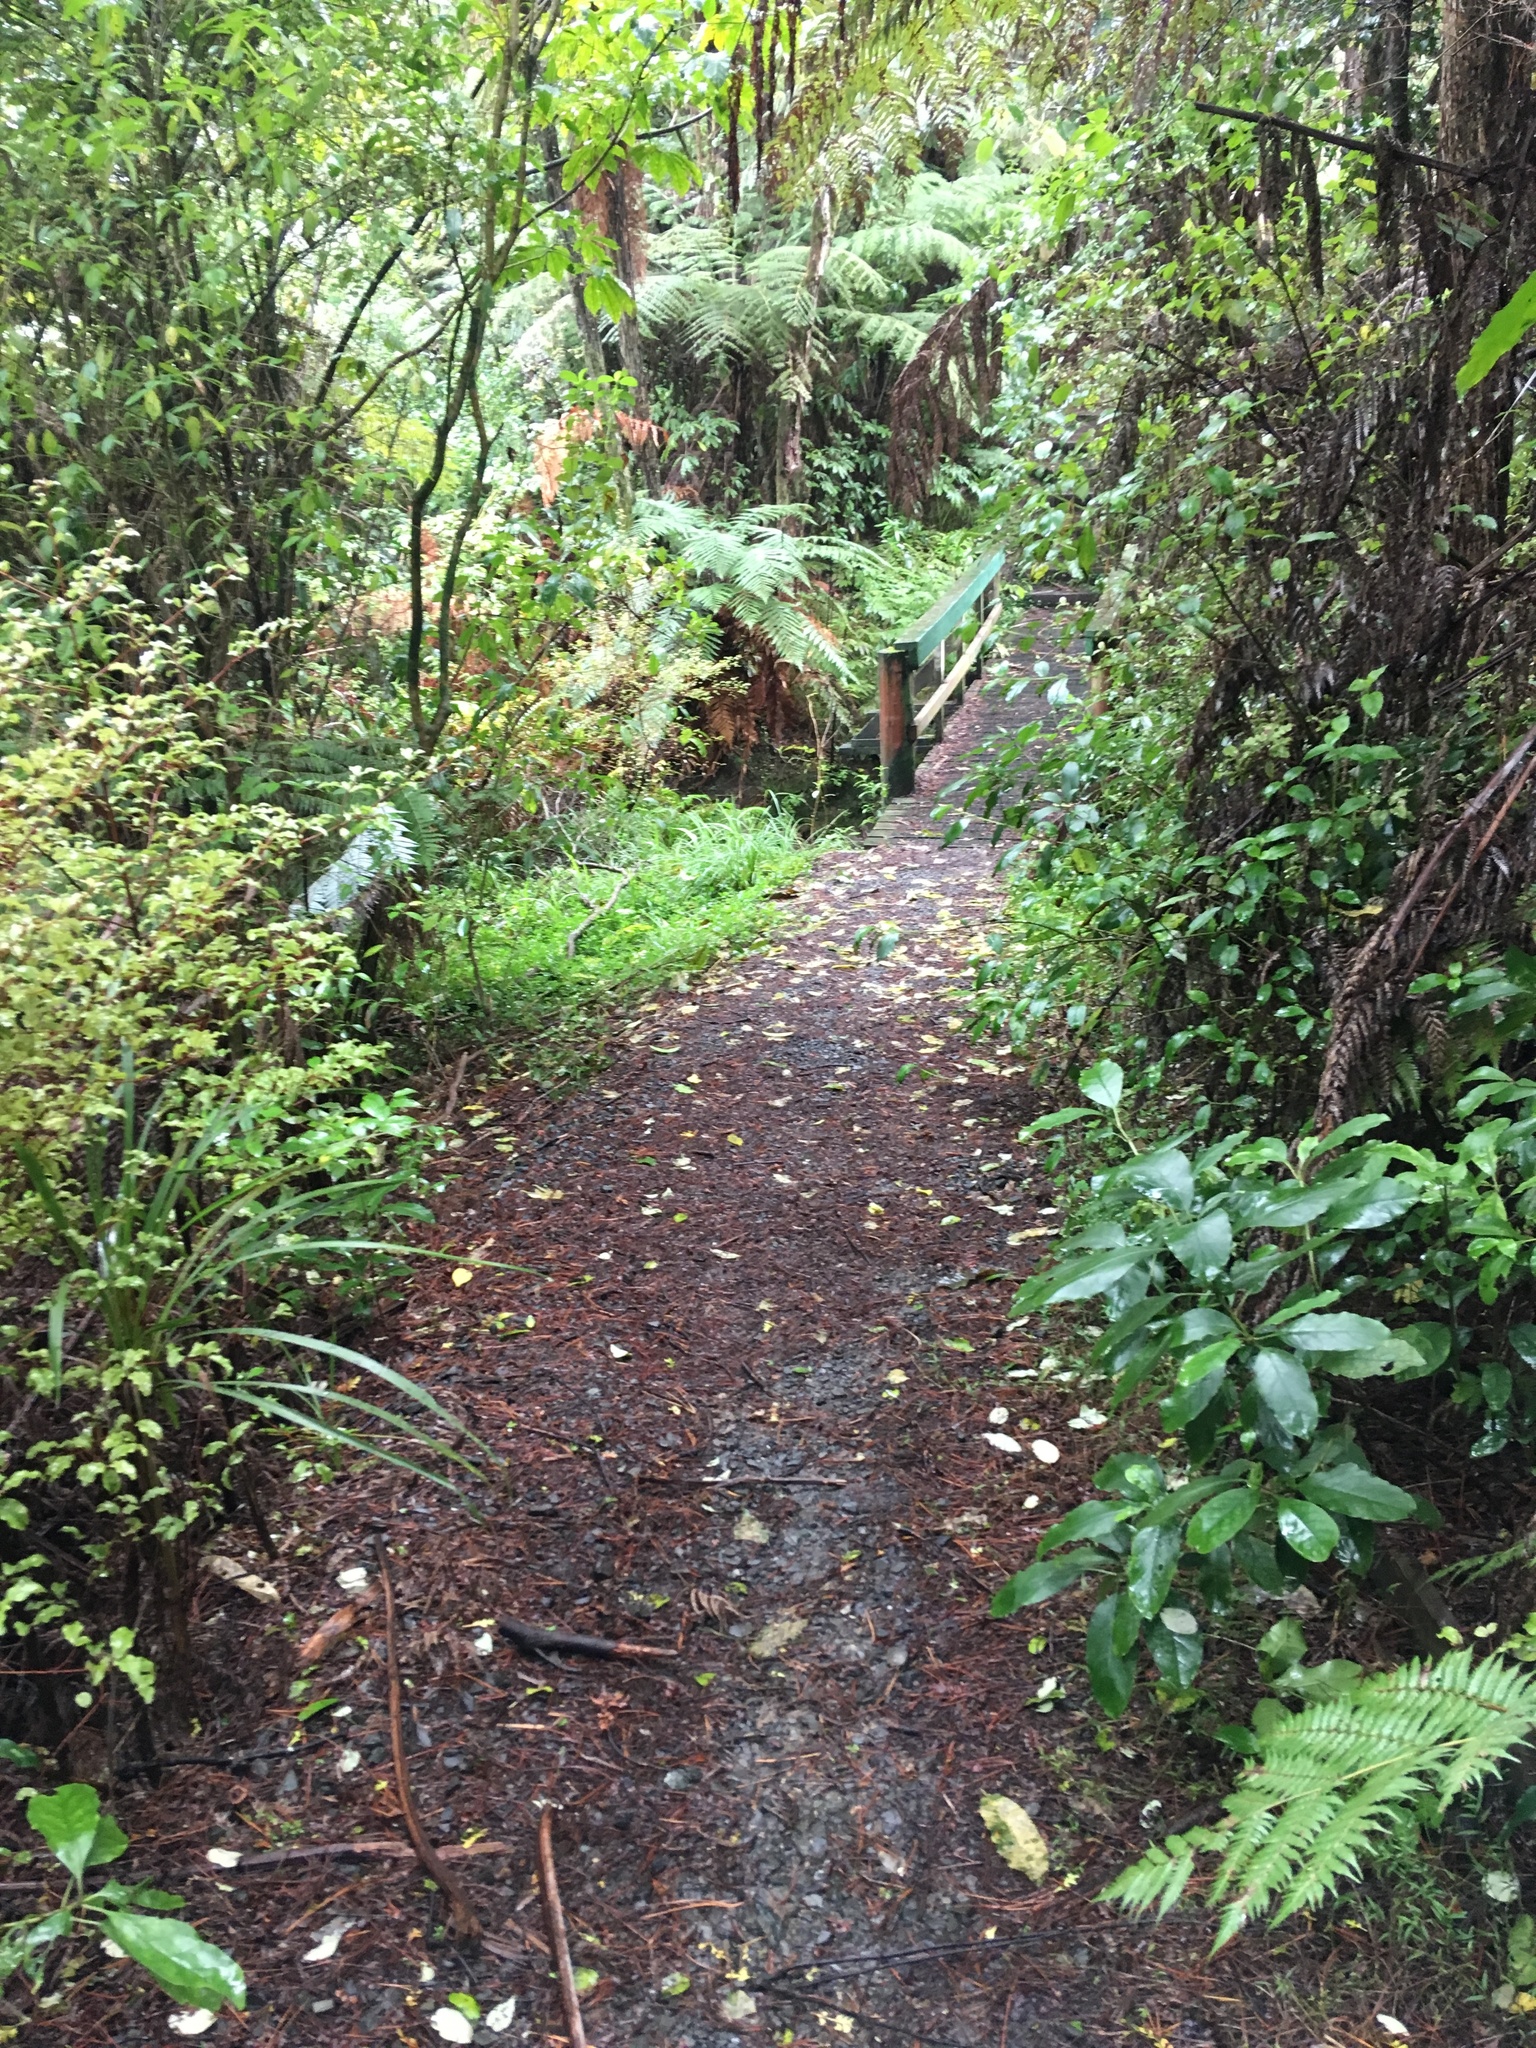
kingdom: Plantae
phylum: Tracheophyta
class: Magnoliopsida
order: Gentianales
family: Rubiaceae
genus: Coprosma
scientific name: Coprosma autumnalis
